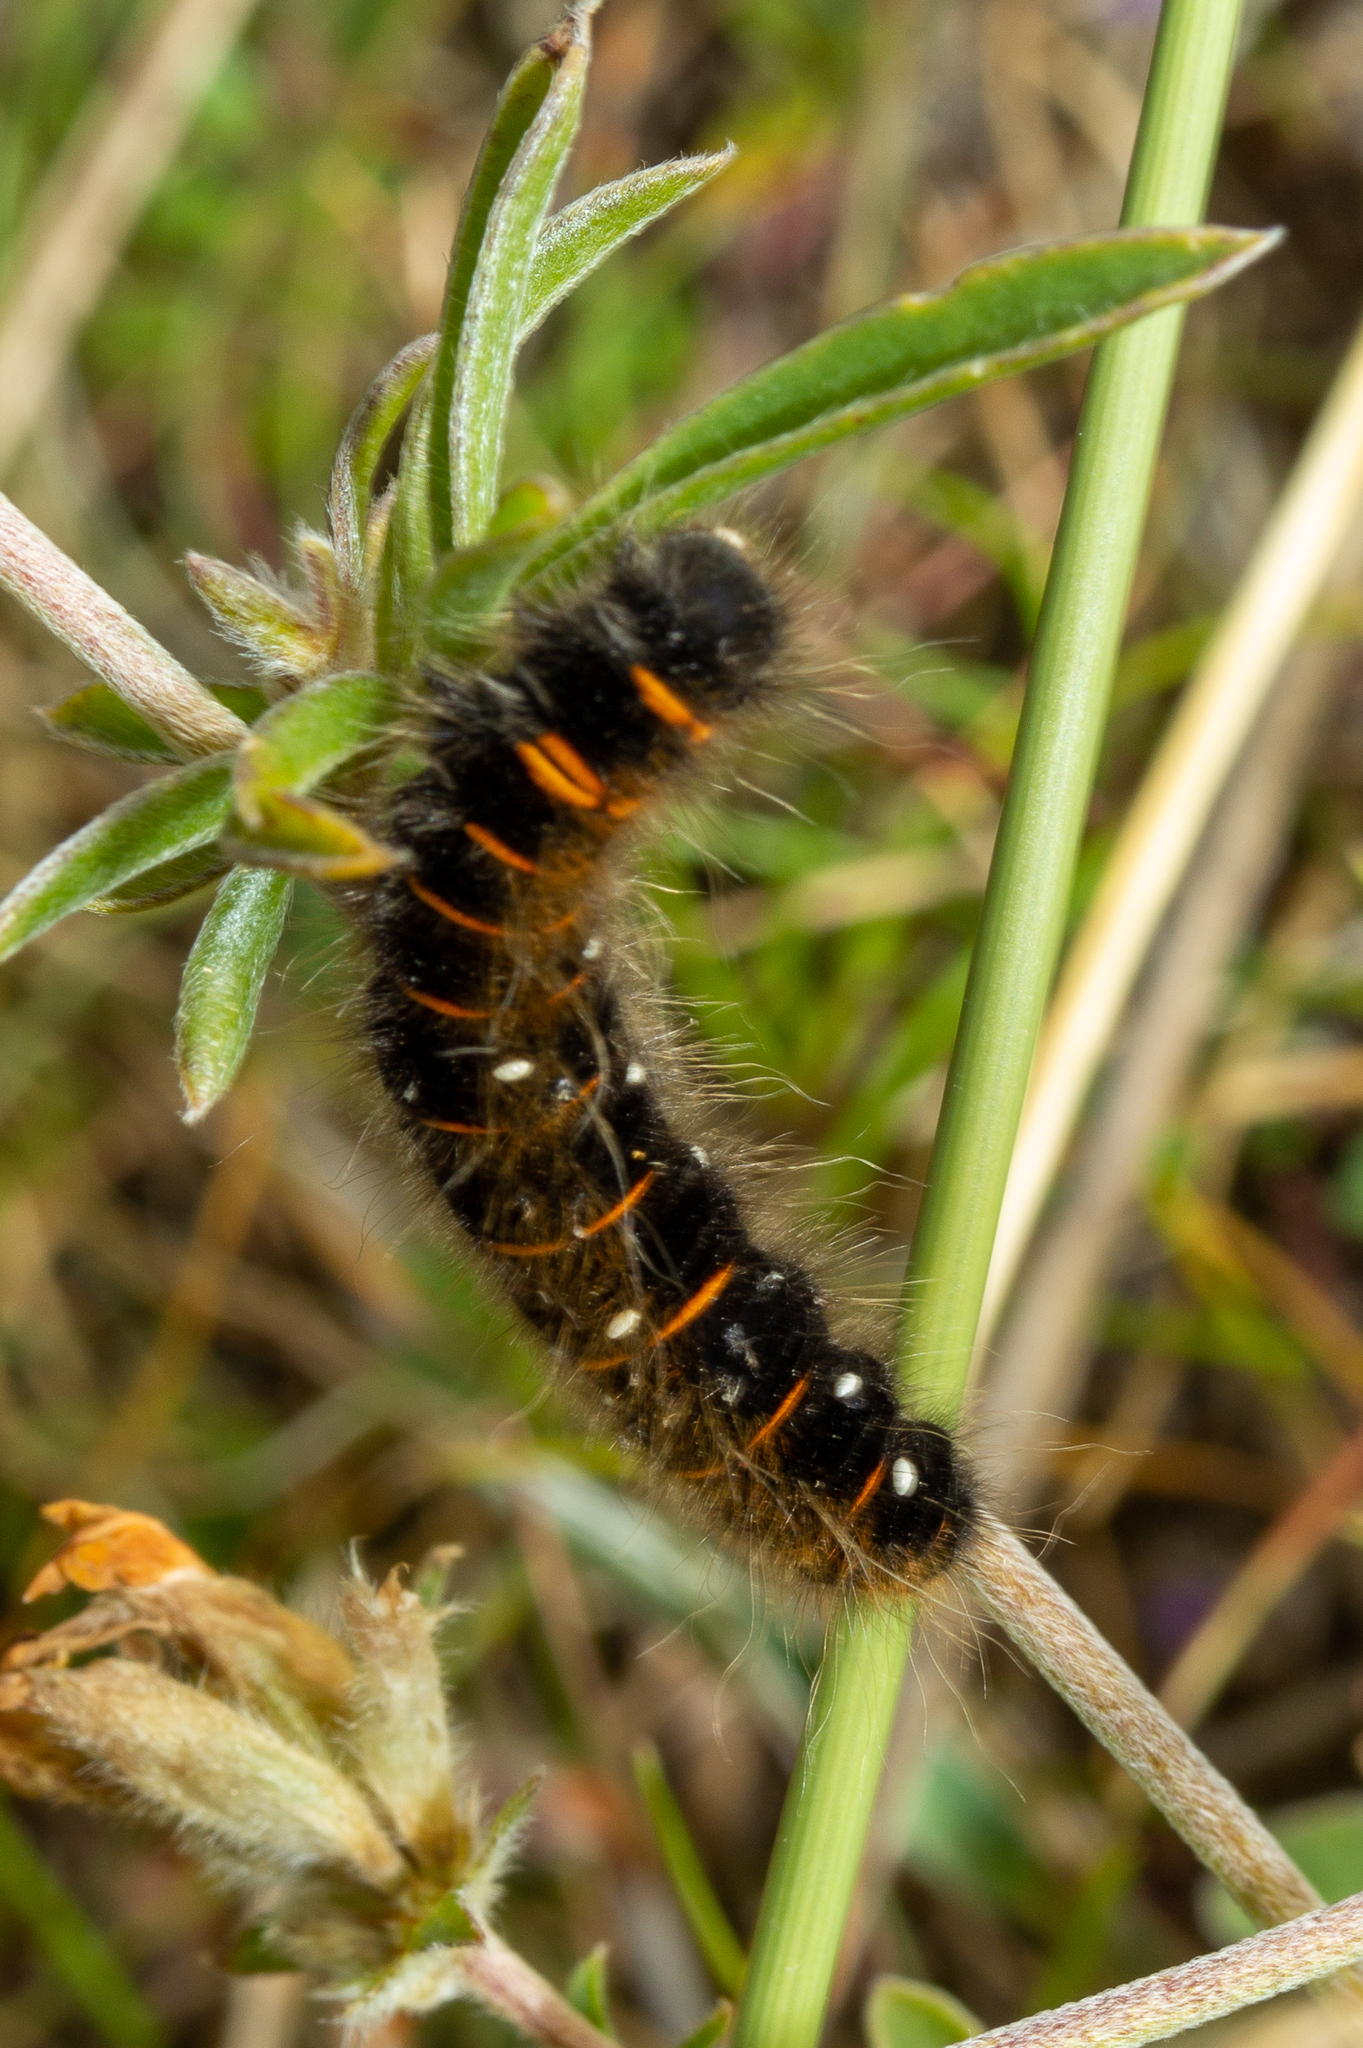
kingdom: Animalia
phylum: Arthropoda
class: Insecta
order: Lepidoptera
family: Lasiocampidae
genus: Macrothylacia
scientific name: Macrothylacia rubi
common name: Fox moth
